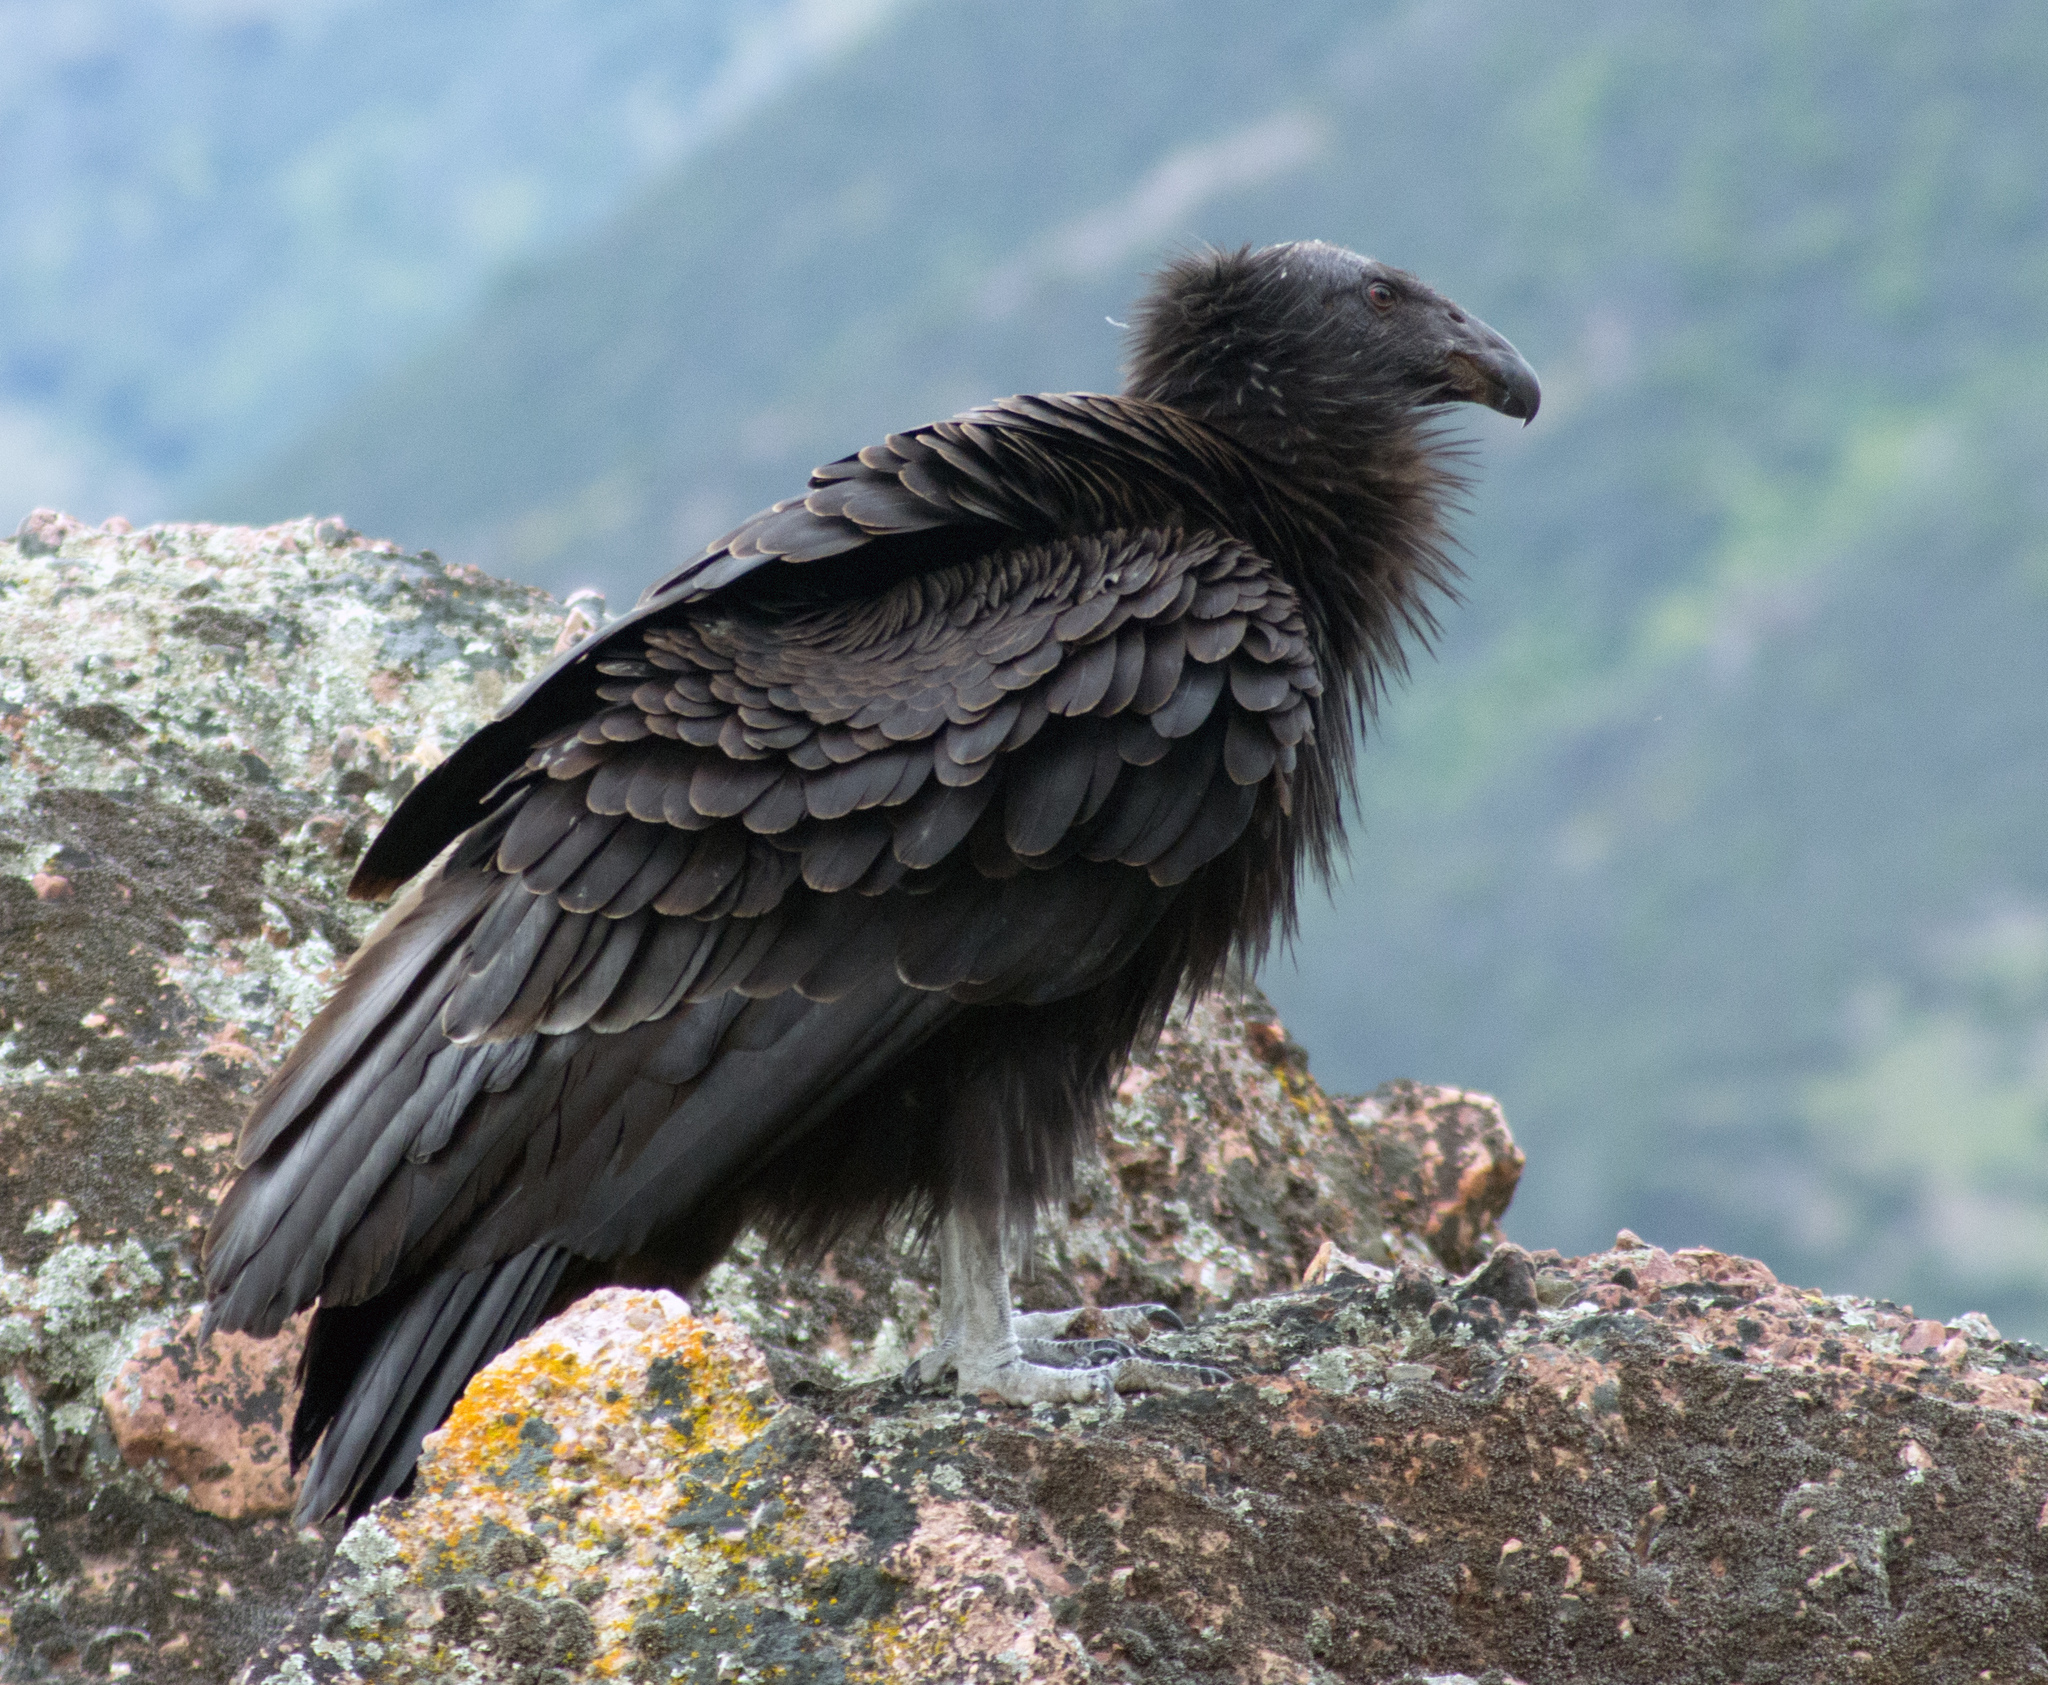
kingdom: Animalia
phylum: Chordata
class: Aves
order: Accipitriformes
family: Cathartidae
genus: Gymnogyps
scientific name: Gymnogyps californianus
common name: California condor
